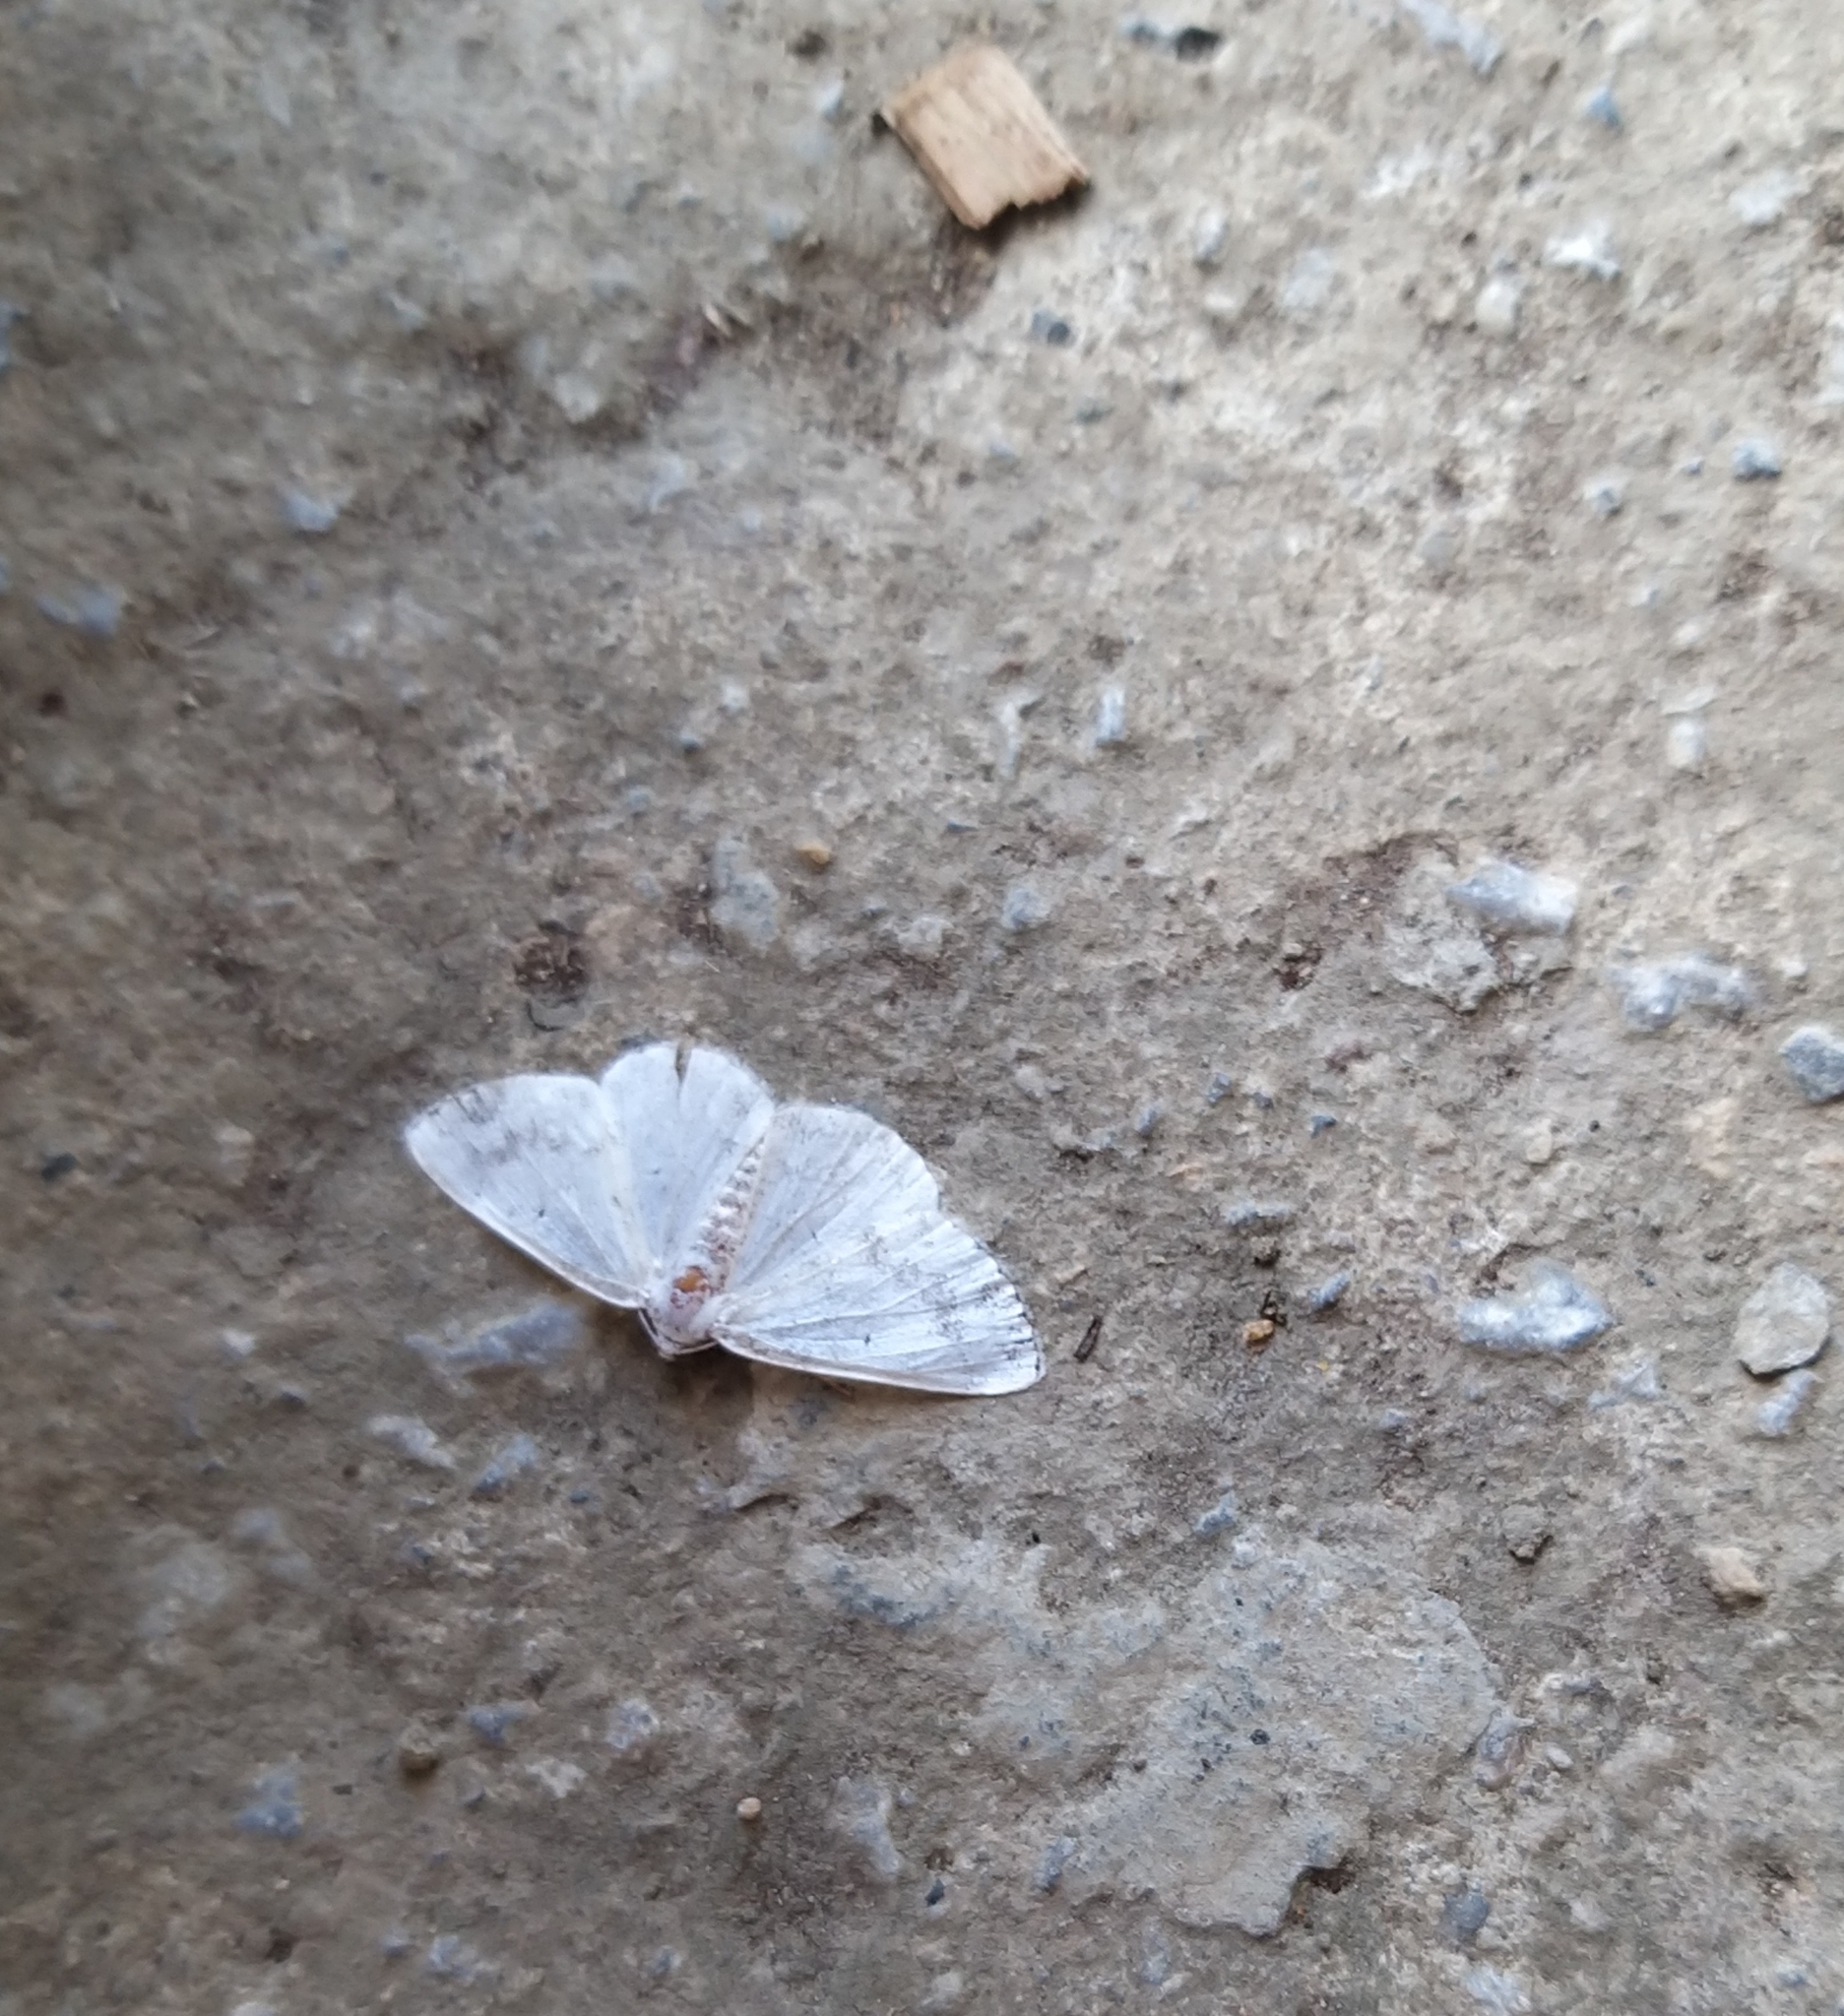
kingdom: Animalia
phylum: Arthropoda
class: Insecta
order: Lepidoptera
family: Geometridae
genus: Lomographa
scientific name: Lomographa temerata
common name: Clouded silver
